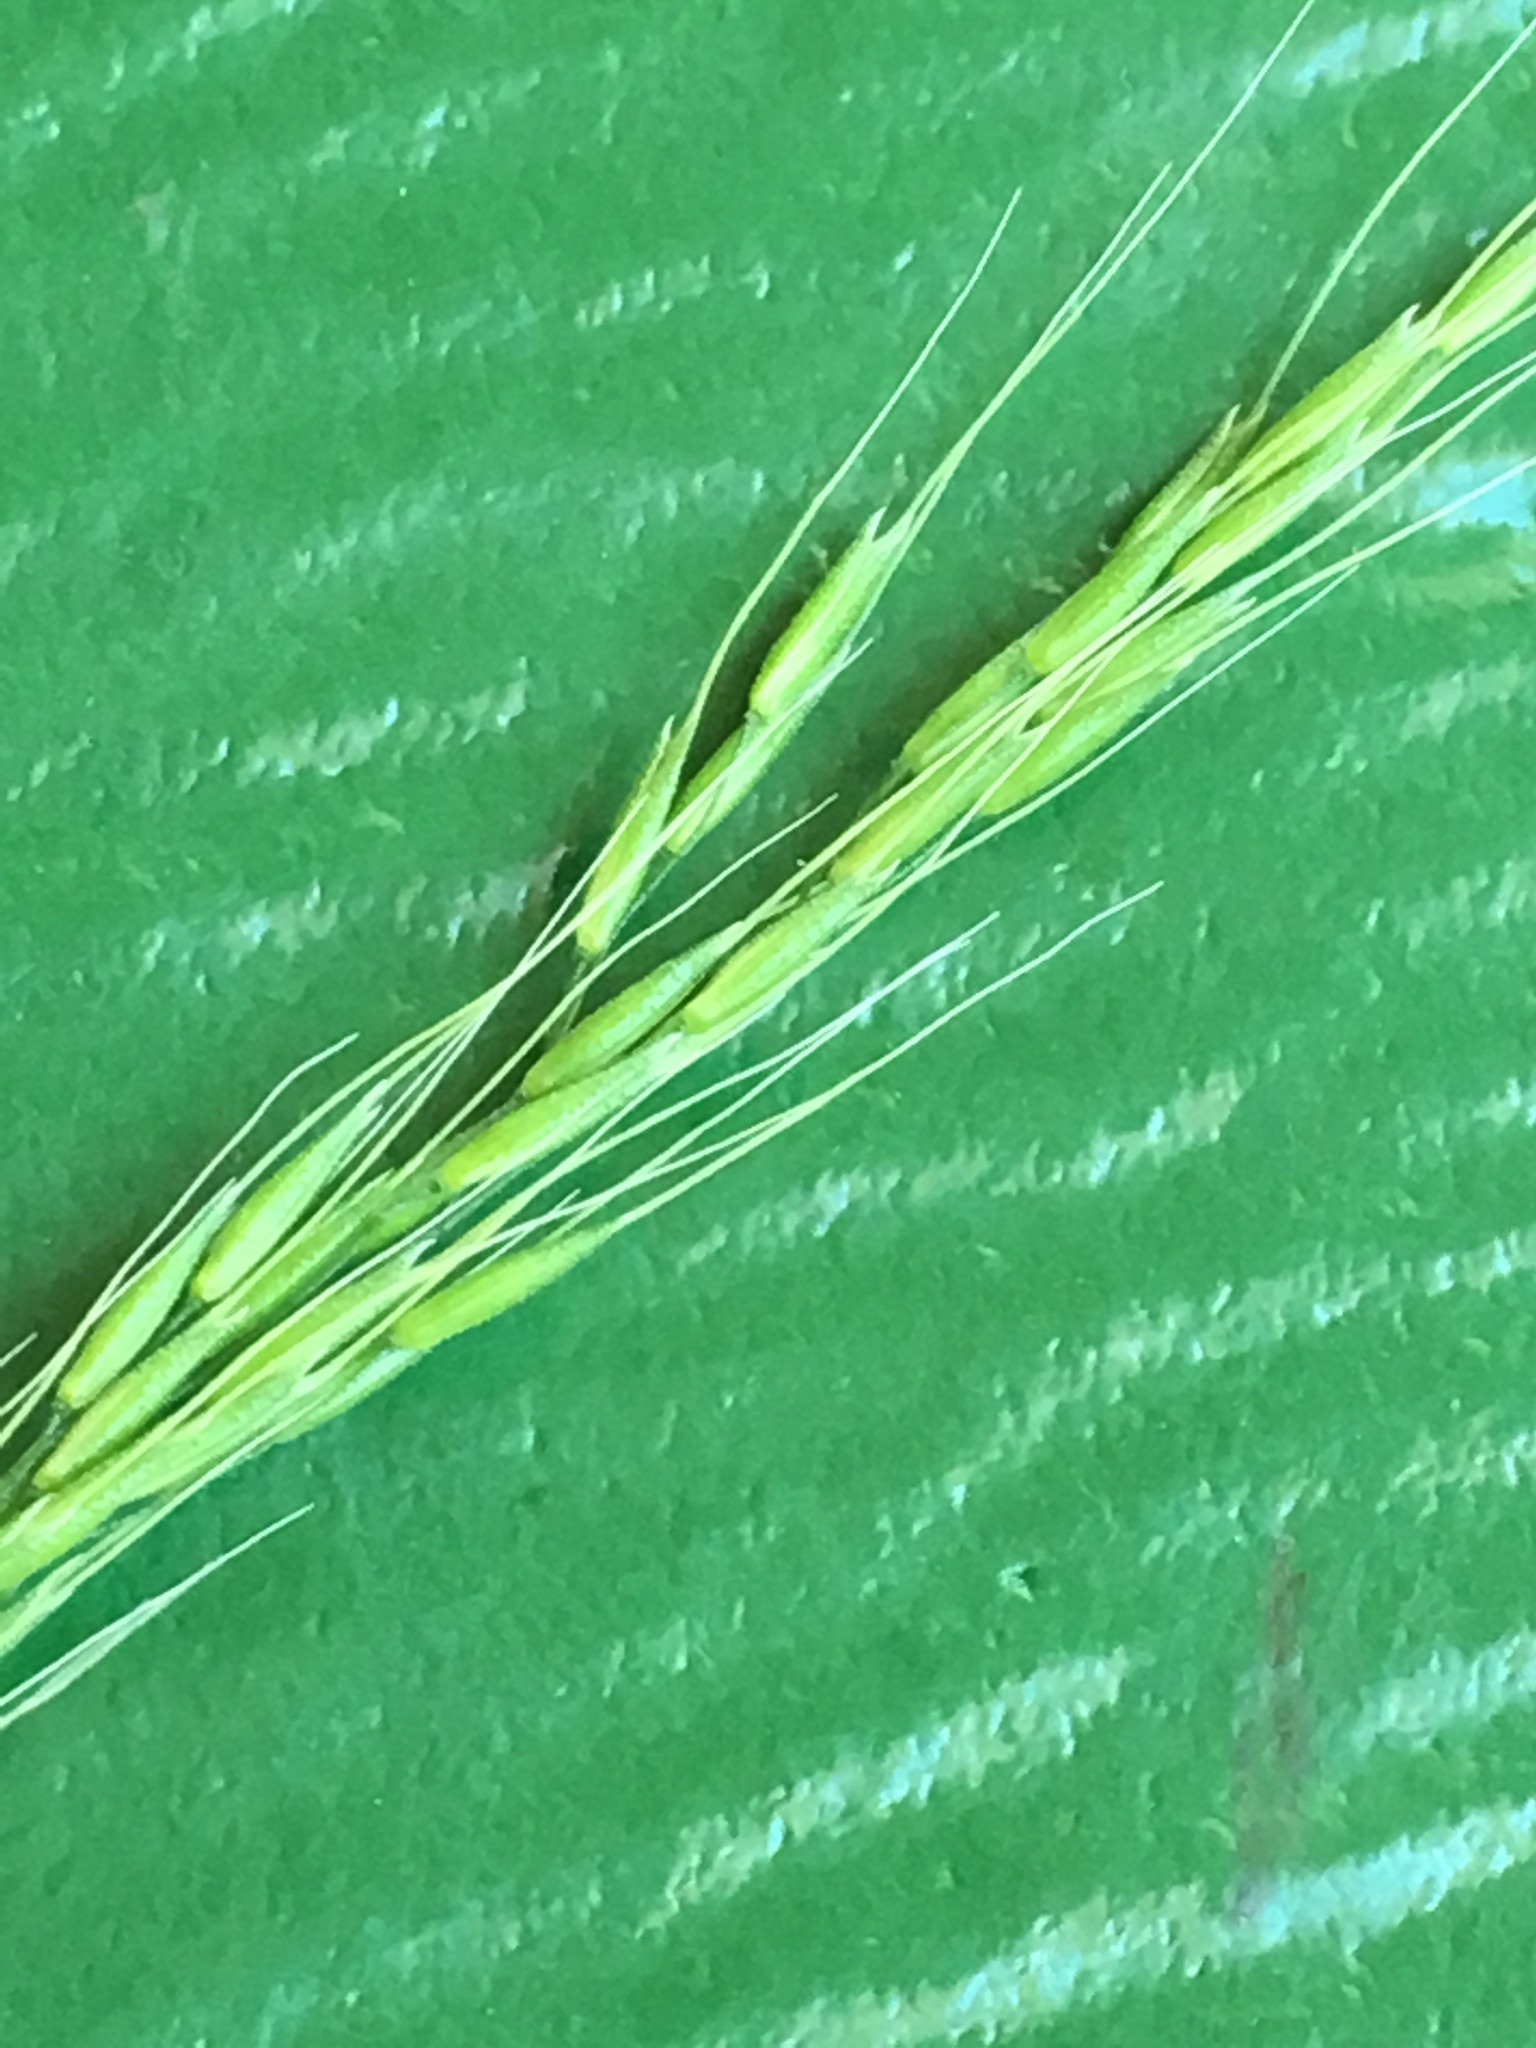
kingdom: Plantae
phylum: Tracheophyta
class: Liliopsida
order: Poales
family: Poaceae
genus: Limnodea
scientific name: Limnodea arkansana
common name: Ozark-grass
